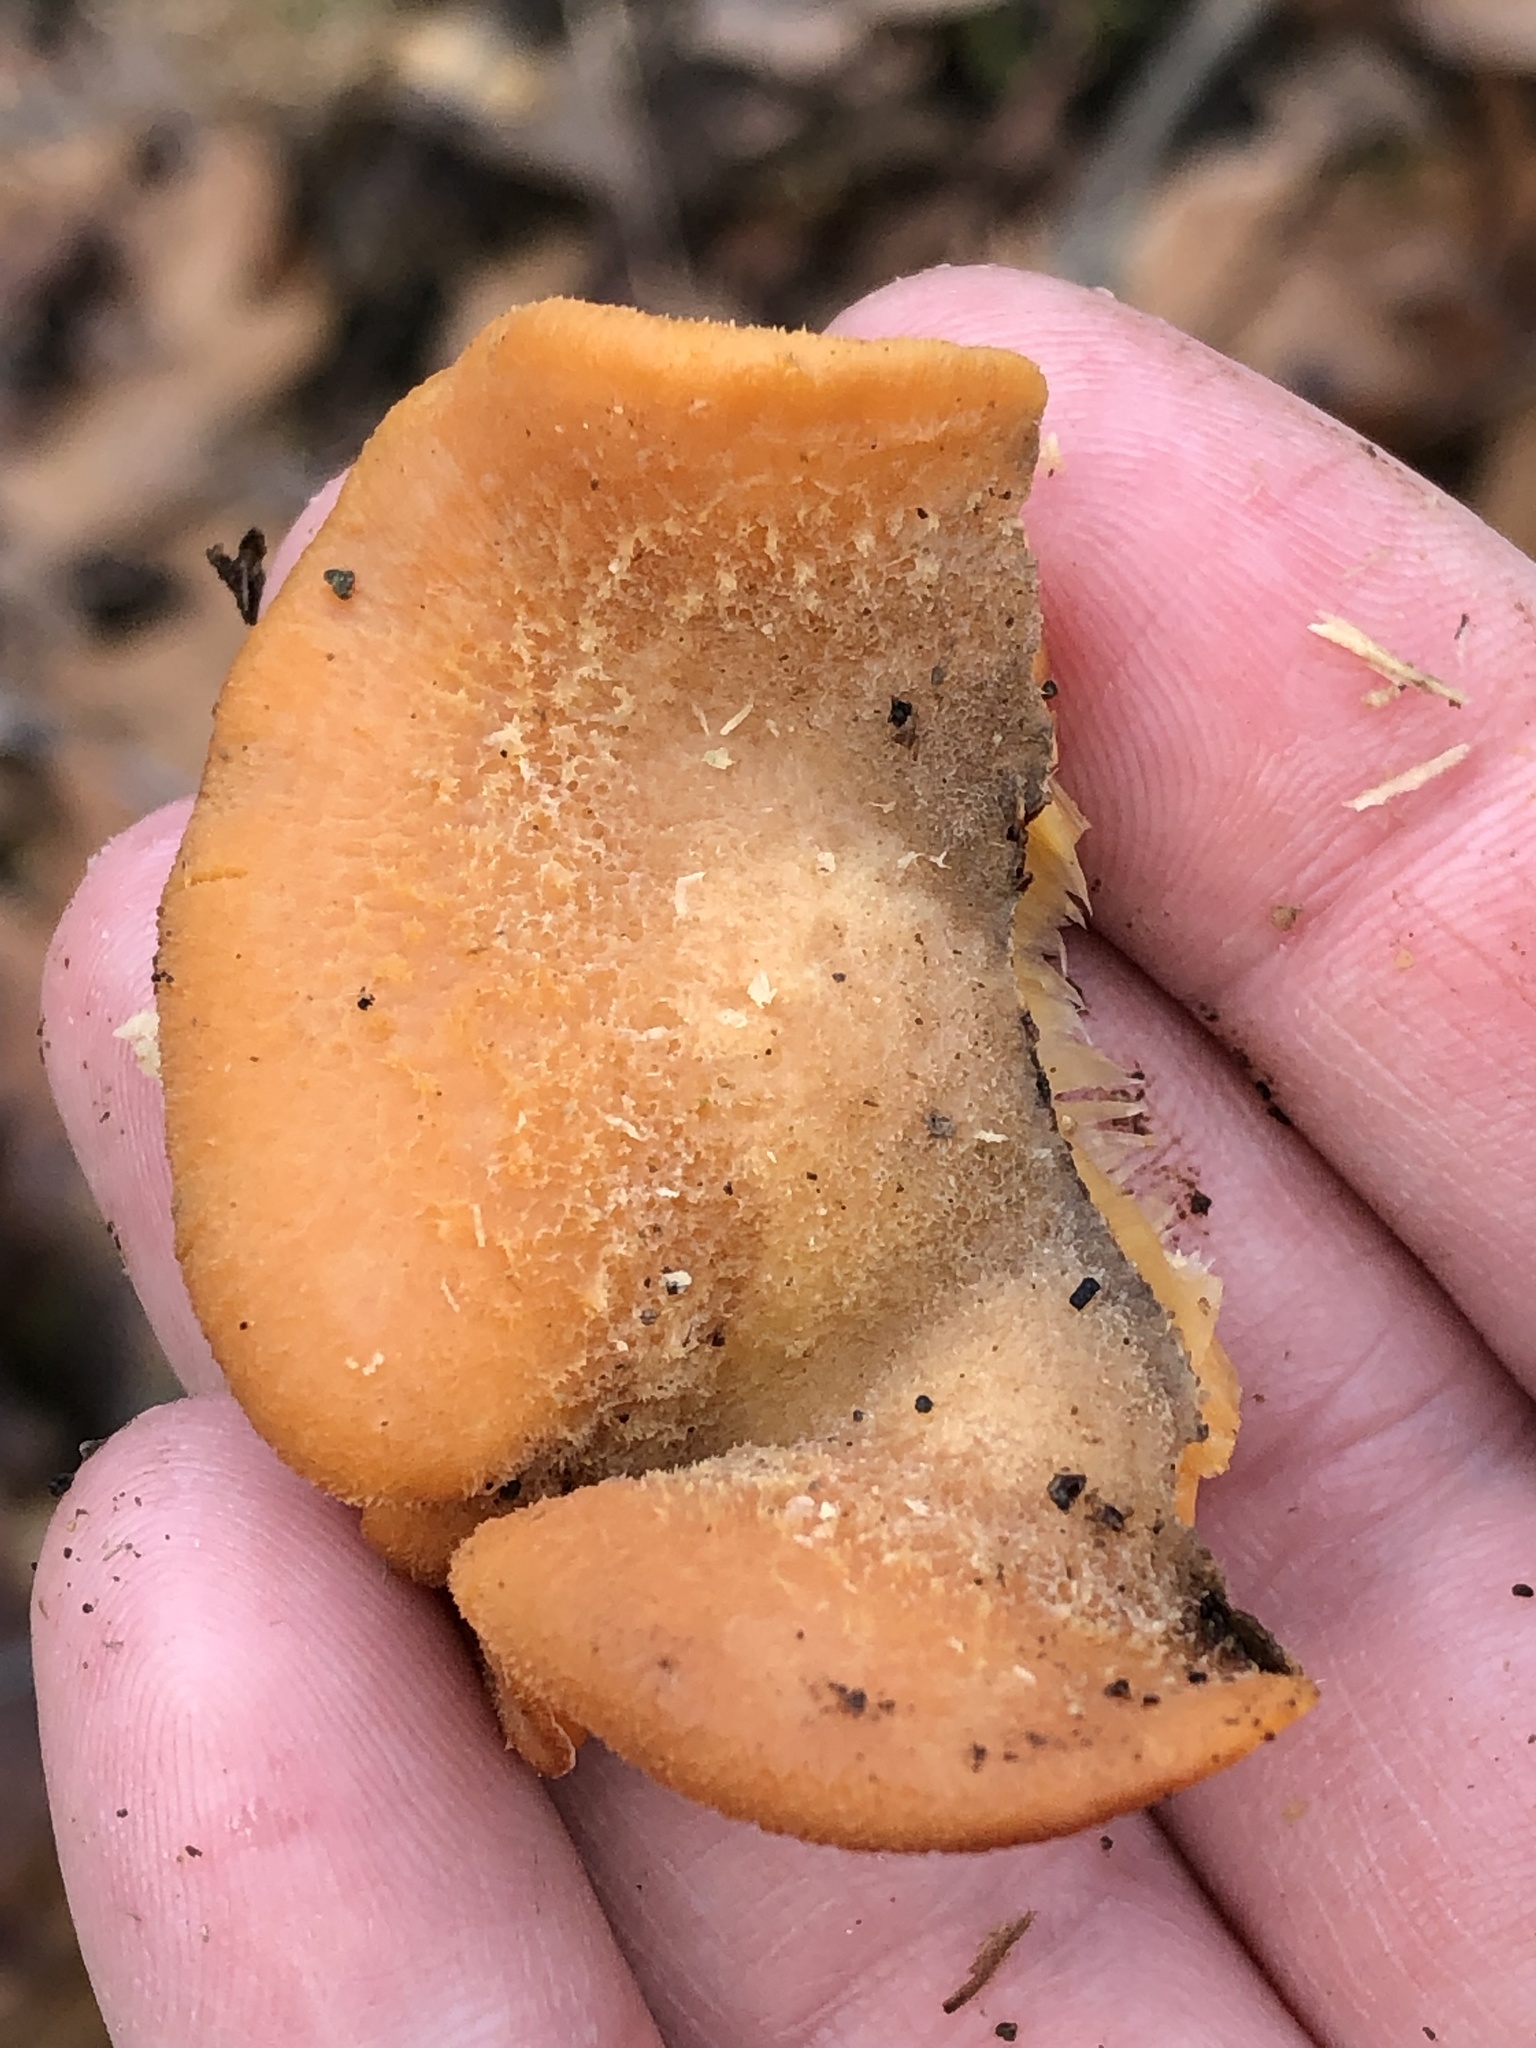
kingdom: Fungi
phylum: Basidiomycota
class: Agaricomycetes
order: Agaricales
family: Phyllotopsidaceae
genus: Phyllotopsis
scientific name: Phyllotopsis nidulans
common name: Orange mock oyster
